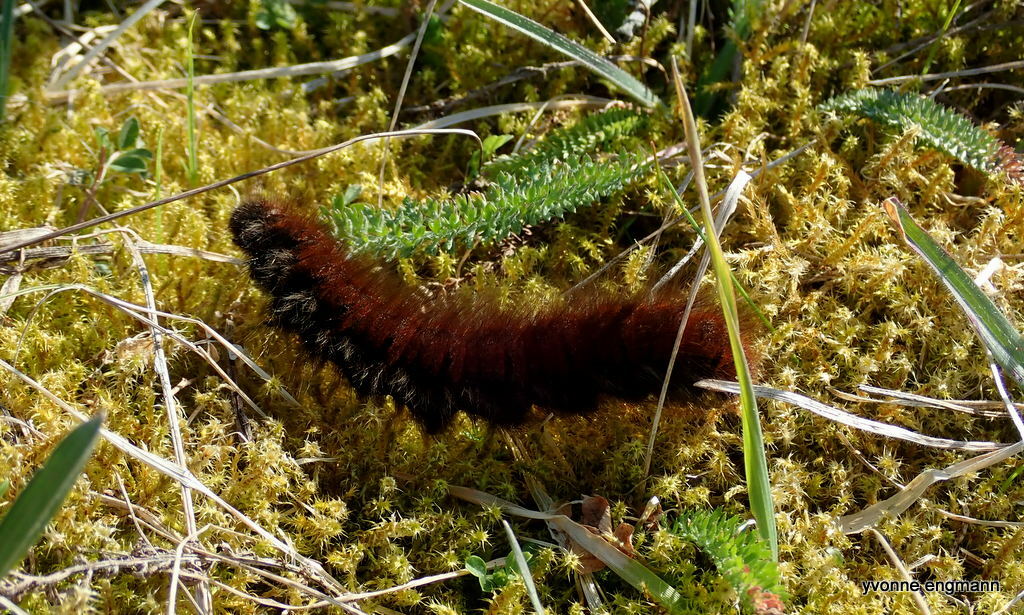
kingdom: Animalia
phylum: Arthropoda
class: Insecta
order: Lepidoptera
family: Lasiocampidae
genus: Macrothylacia
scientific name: Macrothylacia rubi
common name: Fox moth
